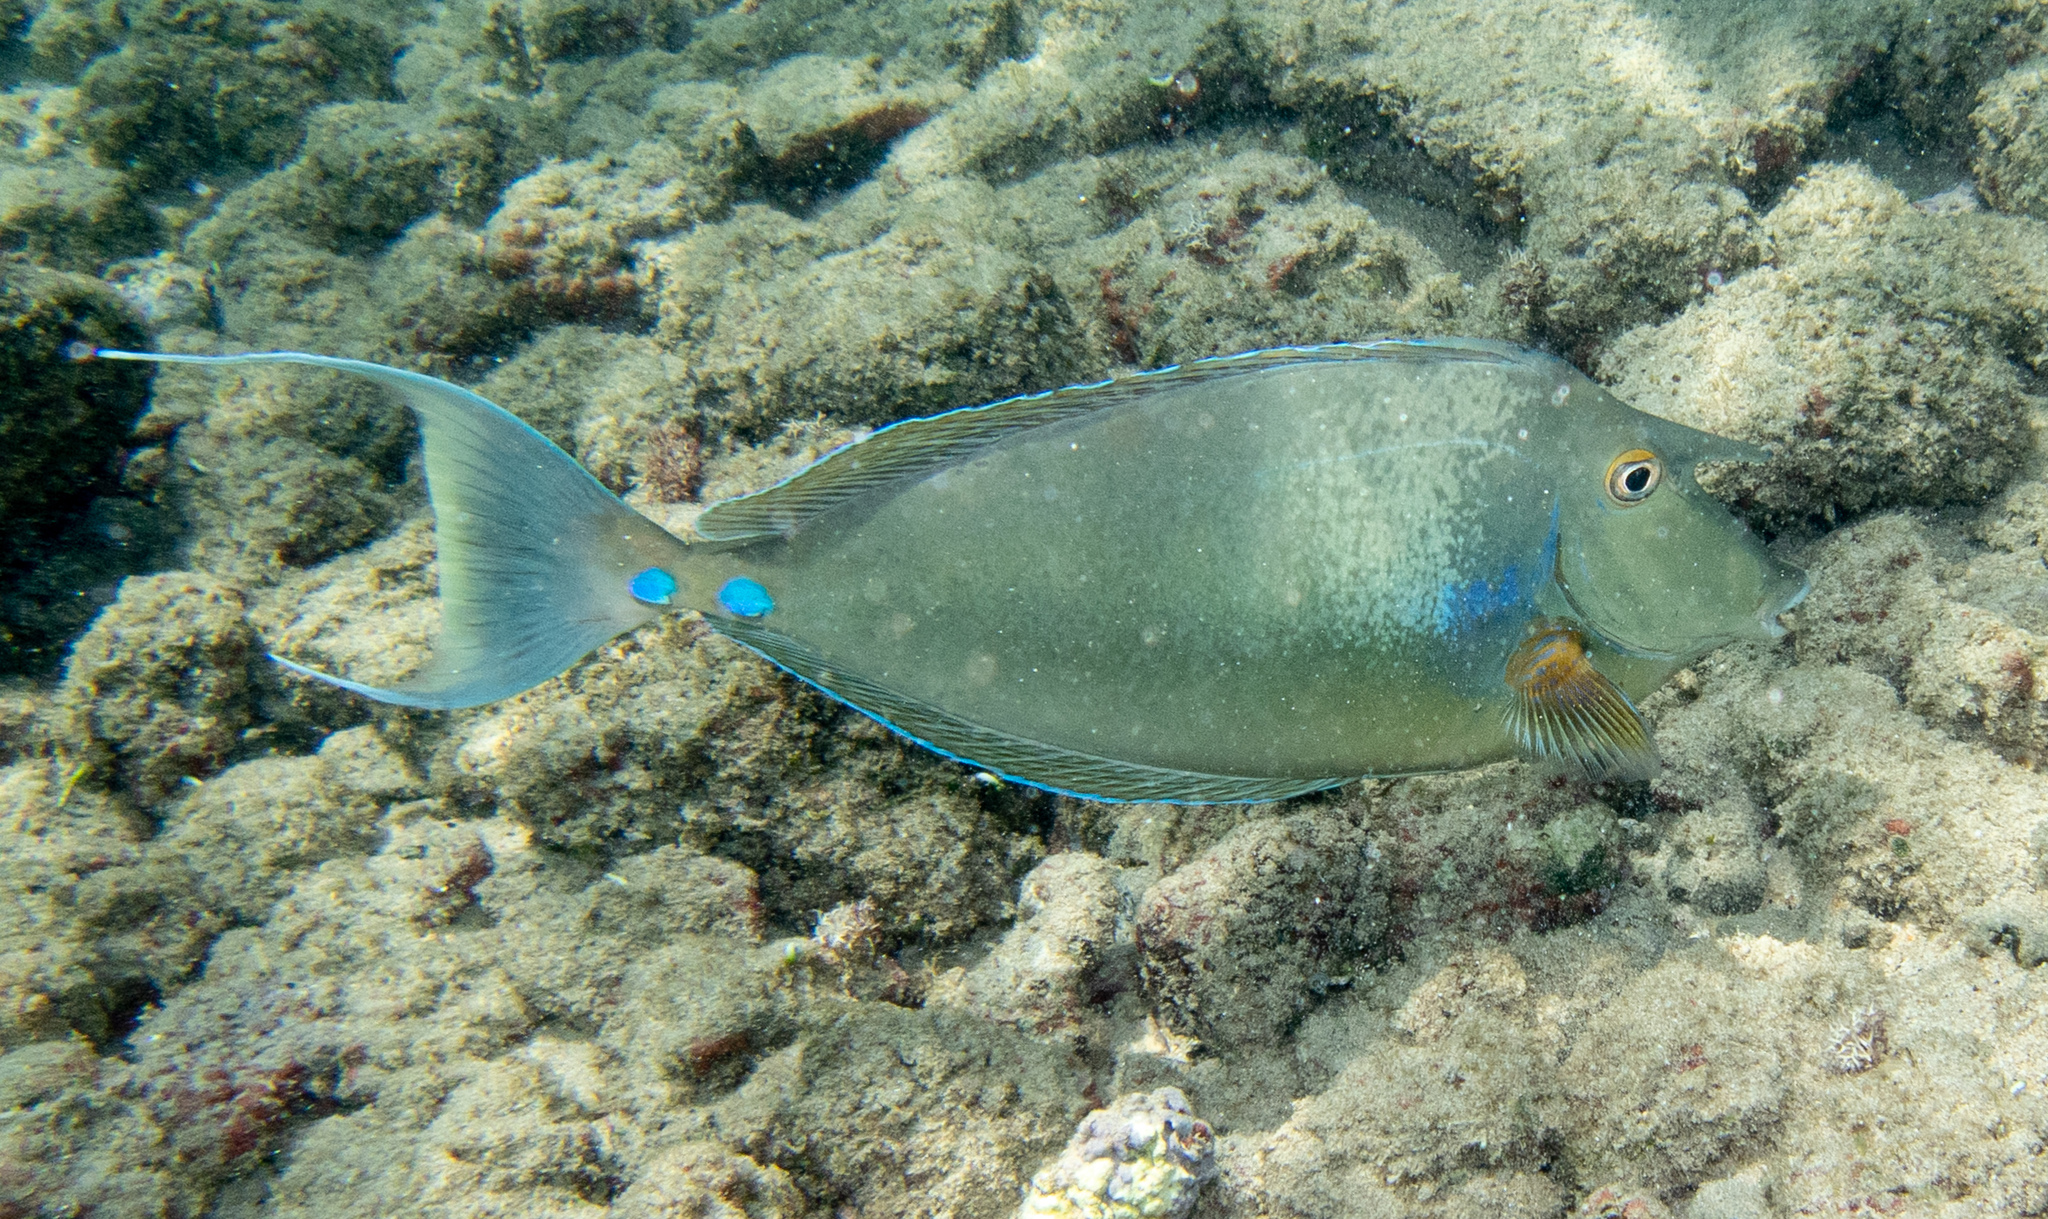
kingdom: Animalia
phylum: Chordata
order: Perciformes
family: Acanthuridae
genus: Naso
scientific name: Naso unicornis
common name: Bluespine unicornfish
